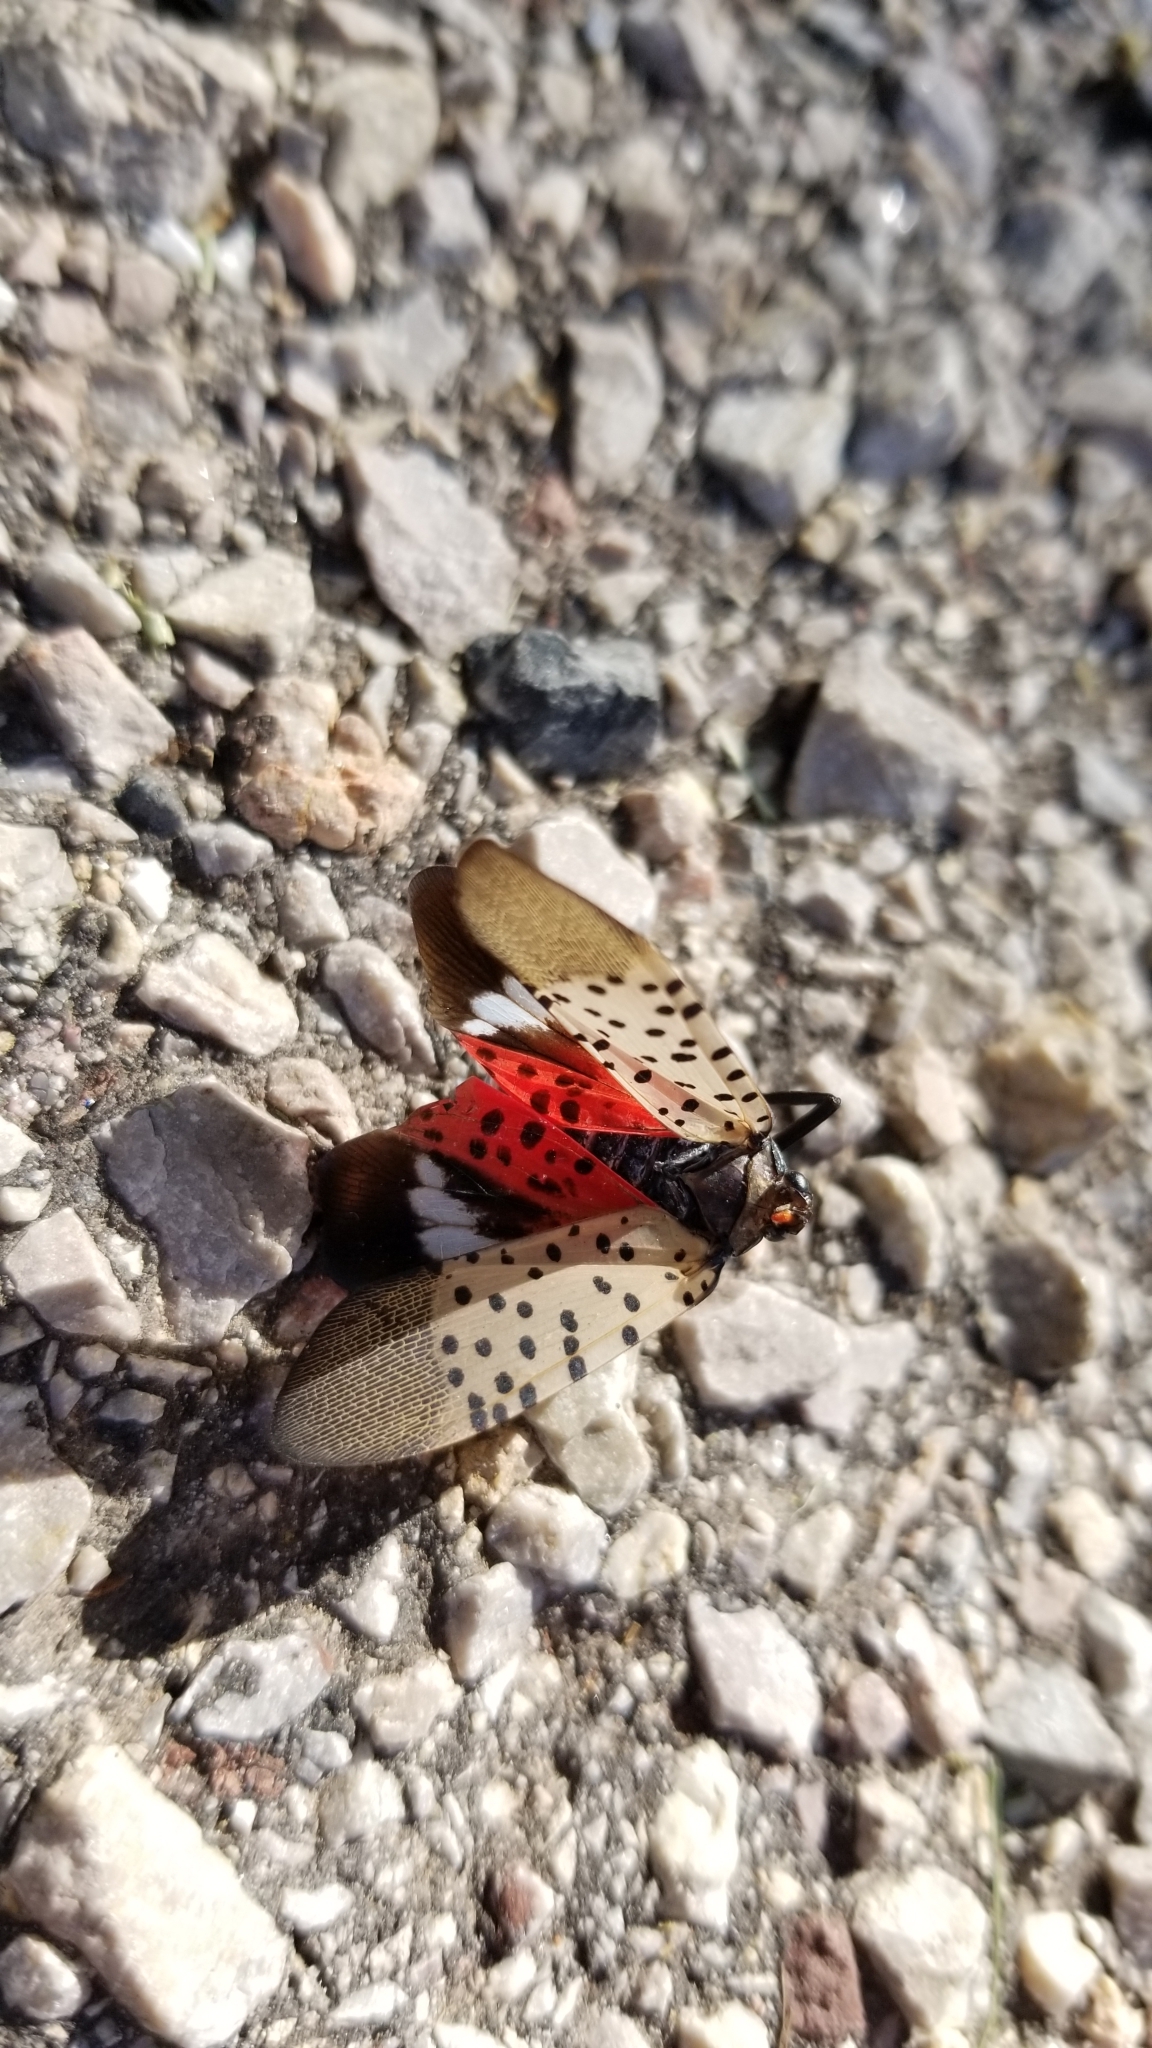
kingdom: Animalia
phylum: Arthropoda
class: Insecta
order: Hemiptera
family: Fulgoridae
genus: Lycorma
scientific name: Lycorma delicatula
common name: Spotted lanternfly
